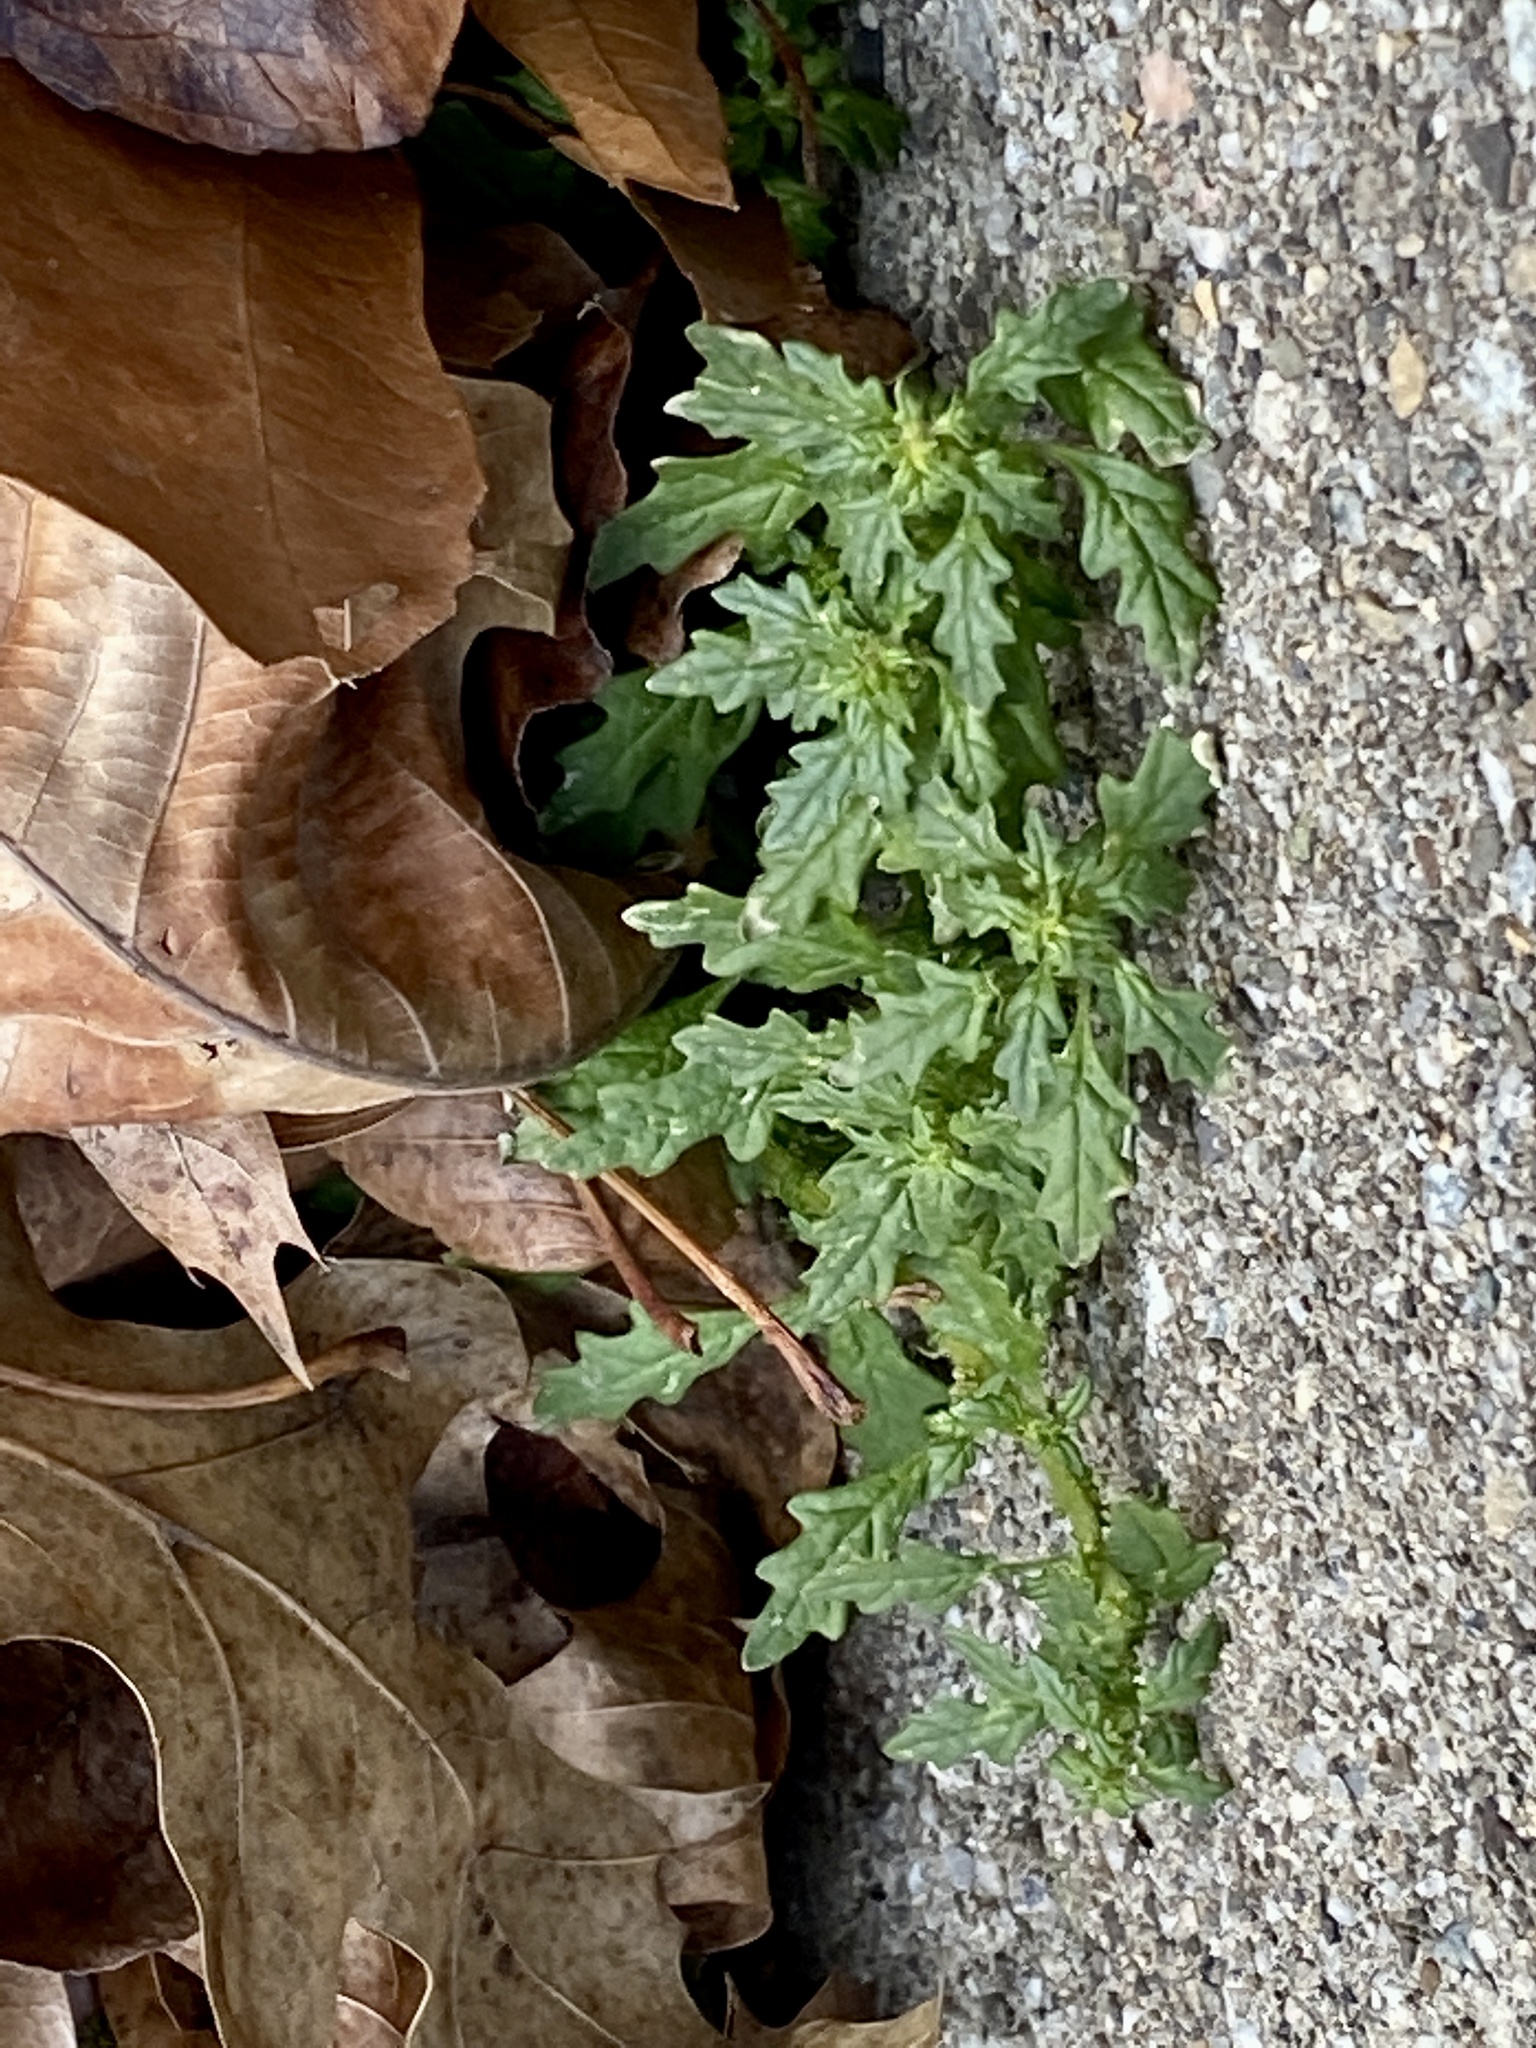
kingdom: Plantae
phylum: Tracheophyta
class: Magnoliopsida
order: Caryophyllales
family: Amaranthaceae
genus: Dysphania
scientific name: Dysphania pumilio
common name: Clammy goosefoot
